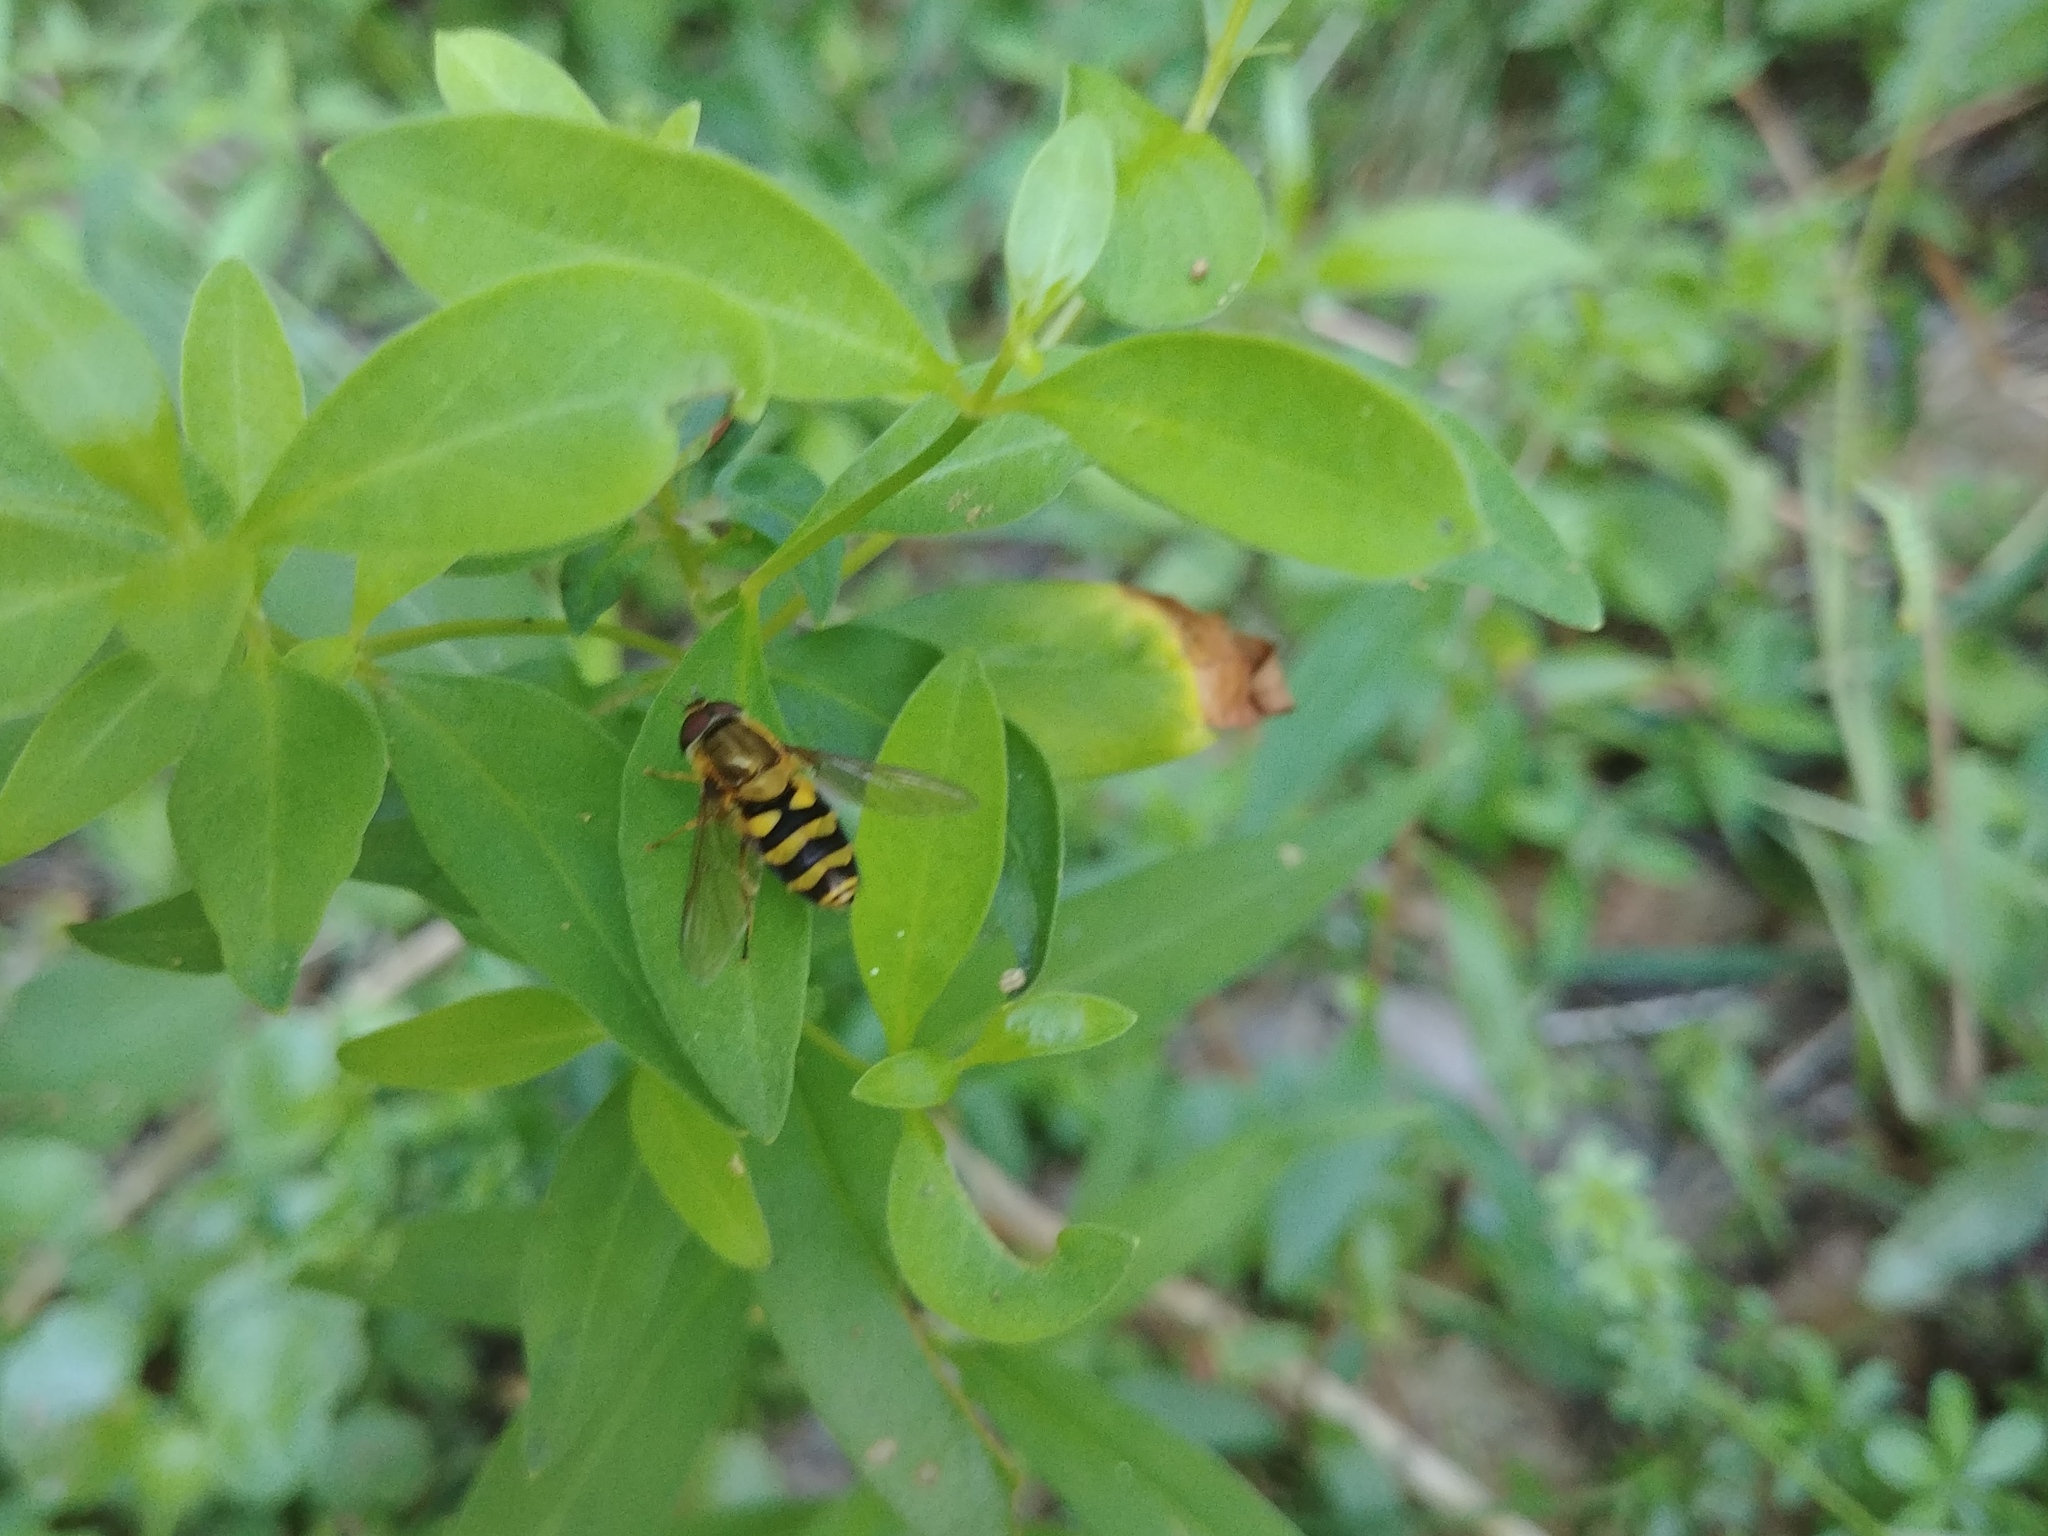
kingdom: Animalia
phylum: Arthropoda
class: Insecta
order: Diptera
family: Syrphidae
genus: Syrphus
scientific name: Syrphus
